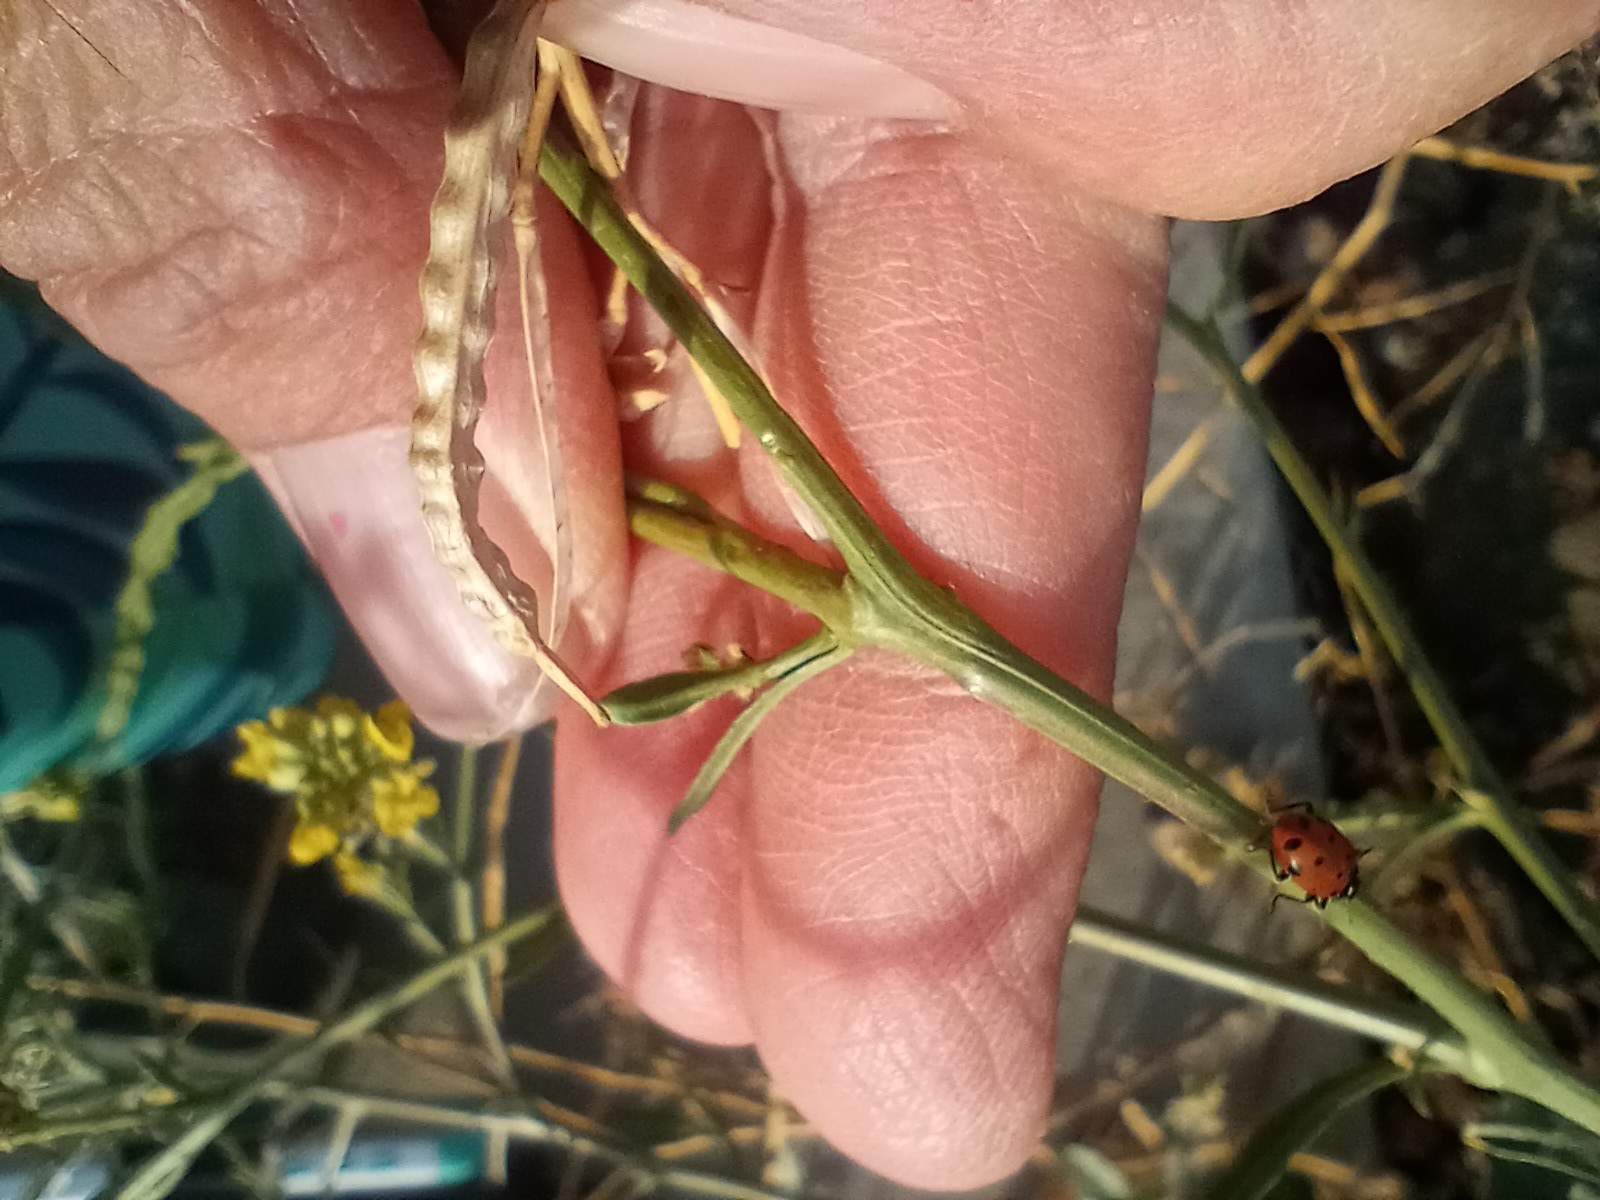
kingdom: Animalia
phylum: Arthropoda
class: Insecta
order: Coleoptera
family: Coccinellidae
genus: Hippodamia
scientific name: Hippodamia convergens
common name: Convergent lady beetle
